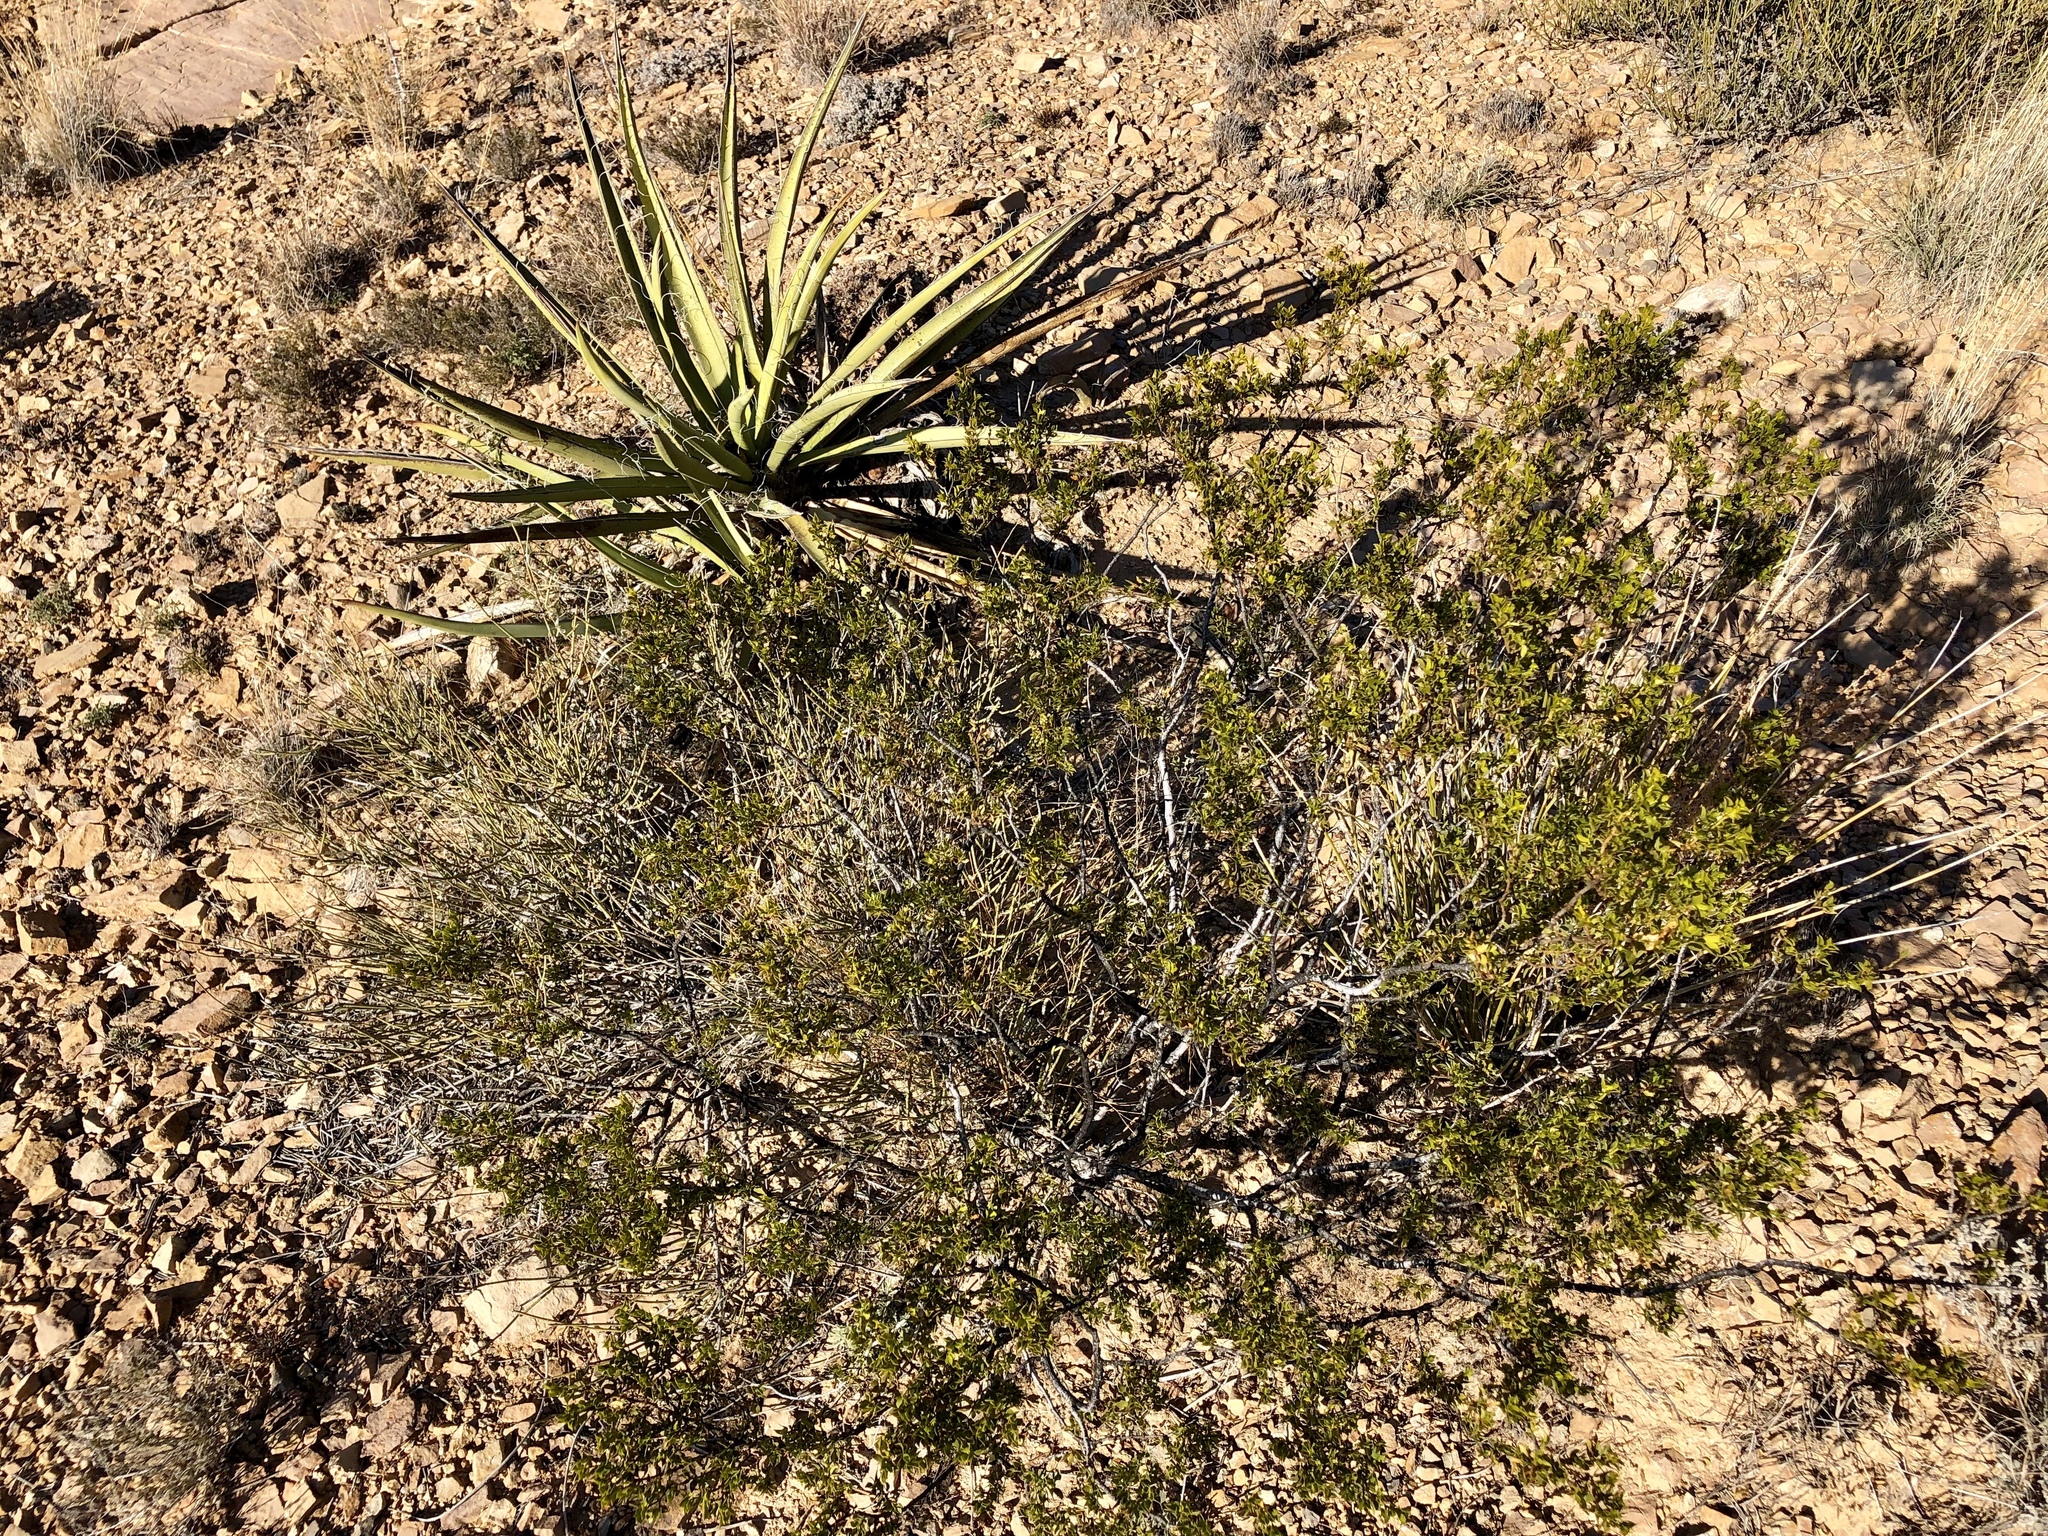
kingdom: Plantae
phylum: Tracheophyta
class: Magnoliopsida
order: Zygophyllales
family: Zygophyllaceae
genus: Larrea
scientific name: Larrea tridentata
